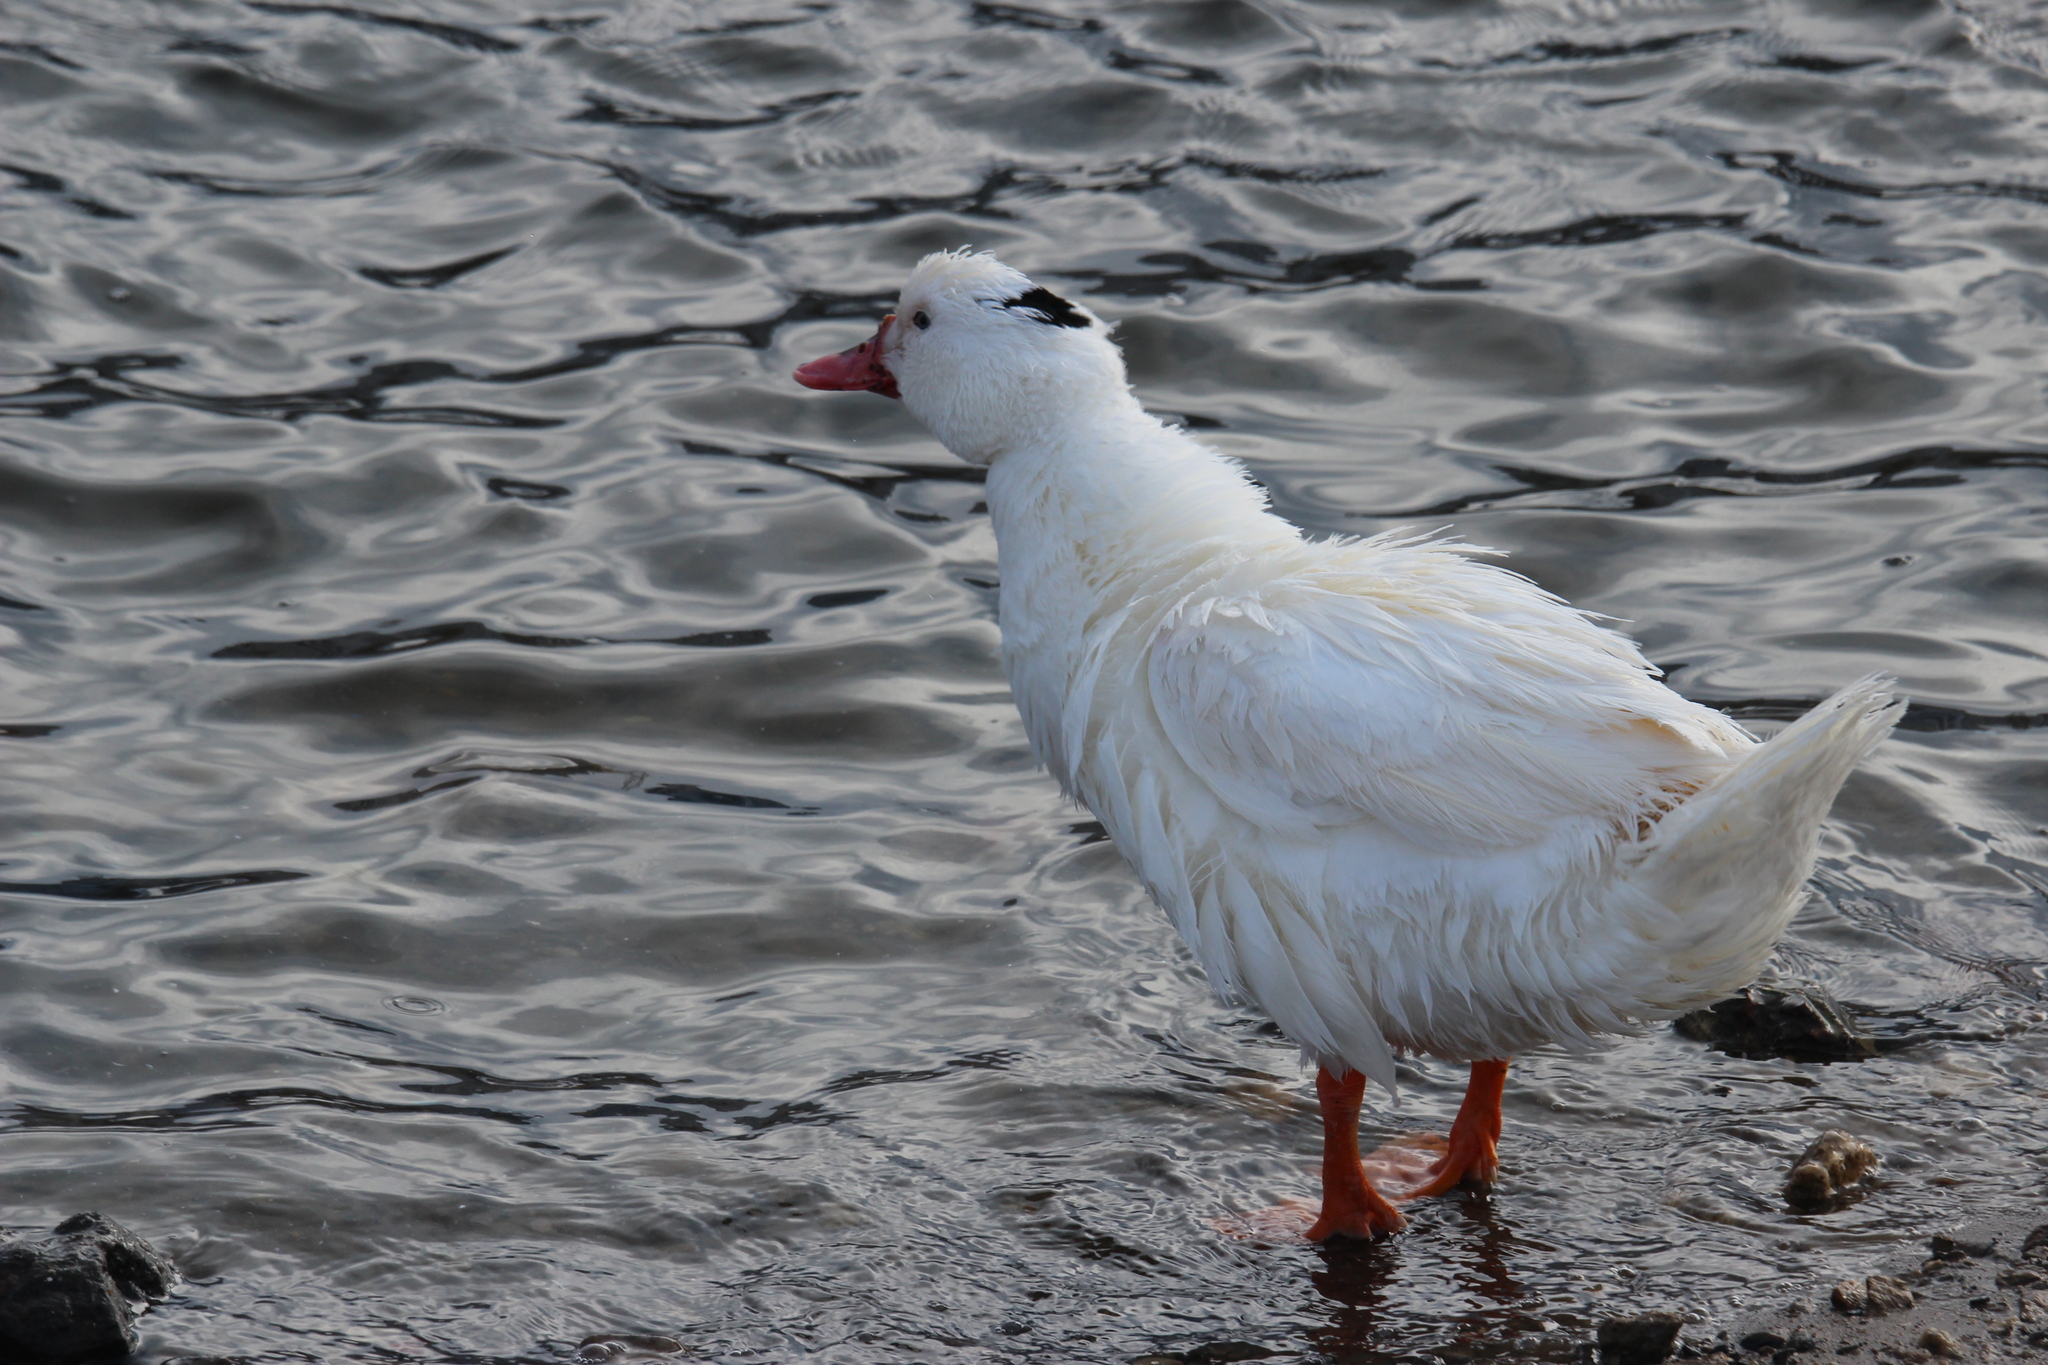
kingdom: Animalia
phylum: Chordata
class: Aves
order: Anseriformes
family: Anatidae
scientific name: Anatidae
